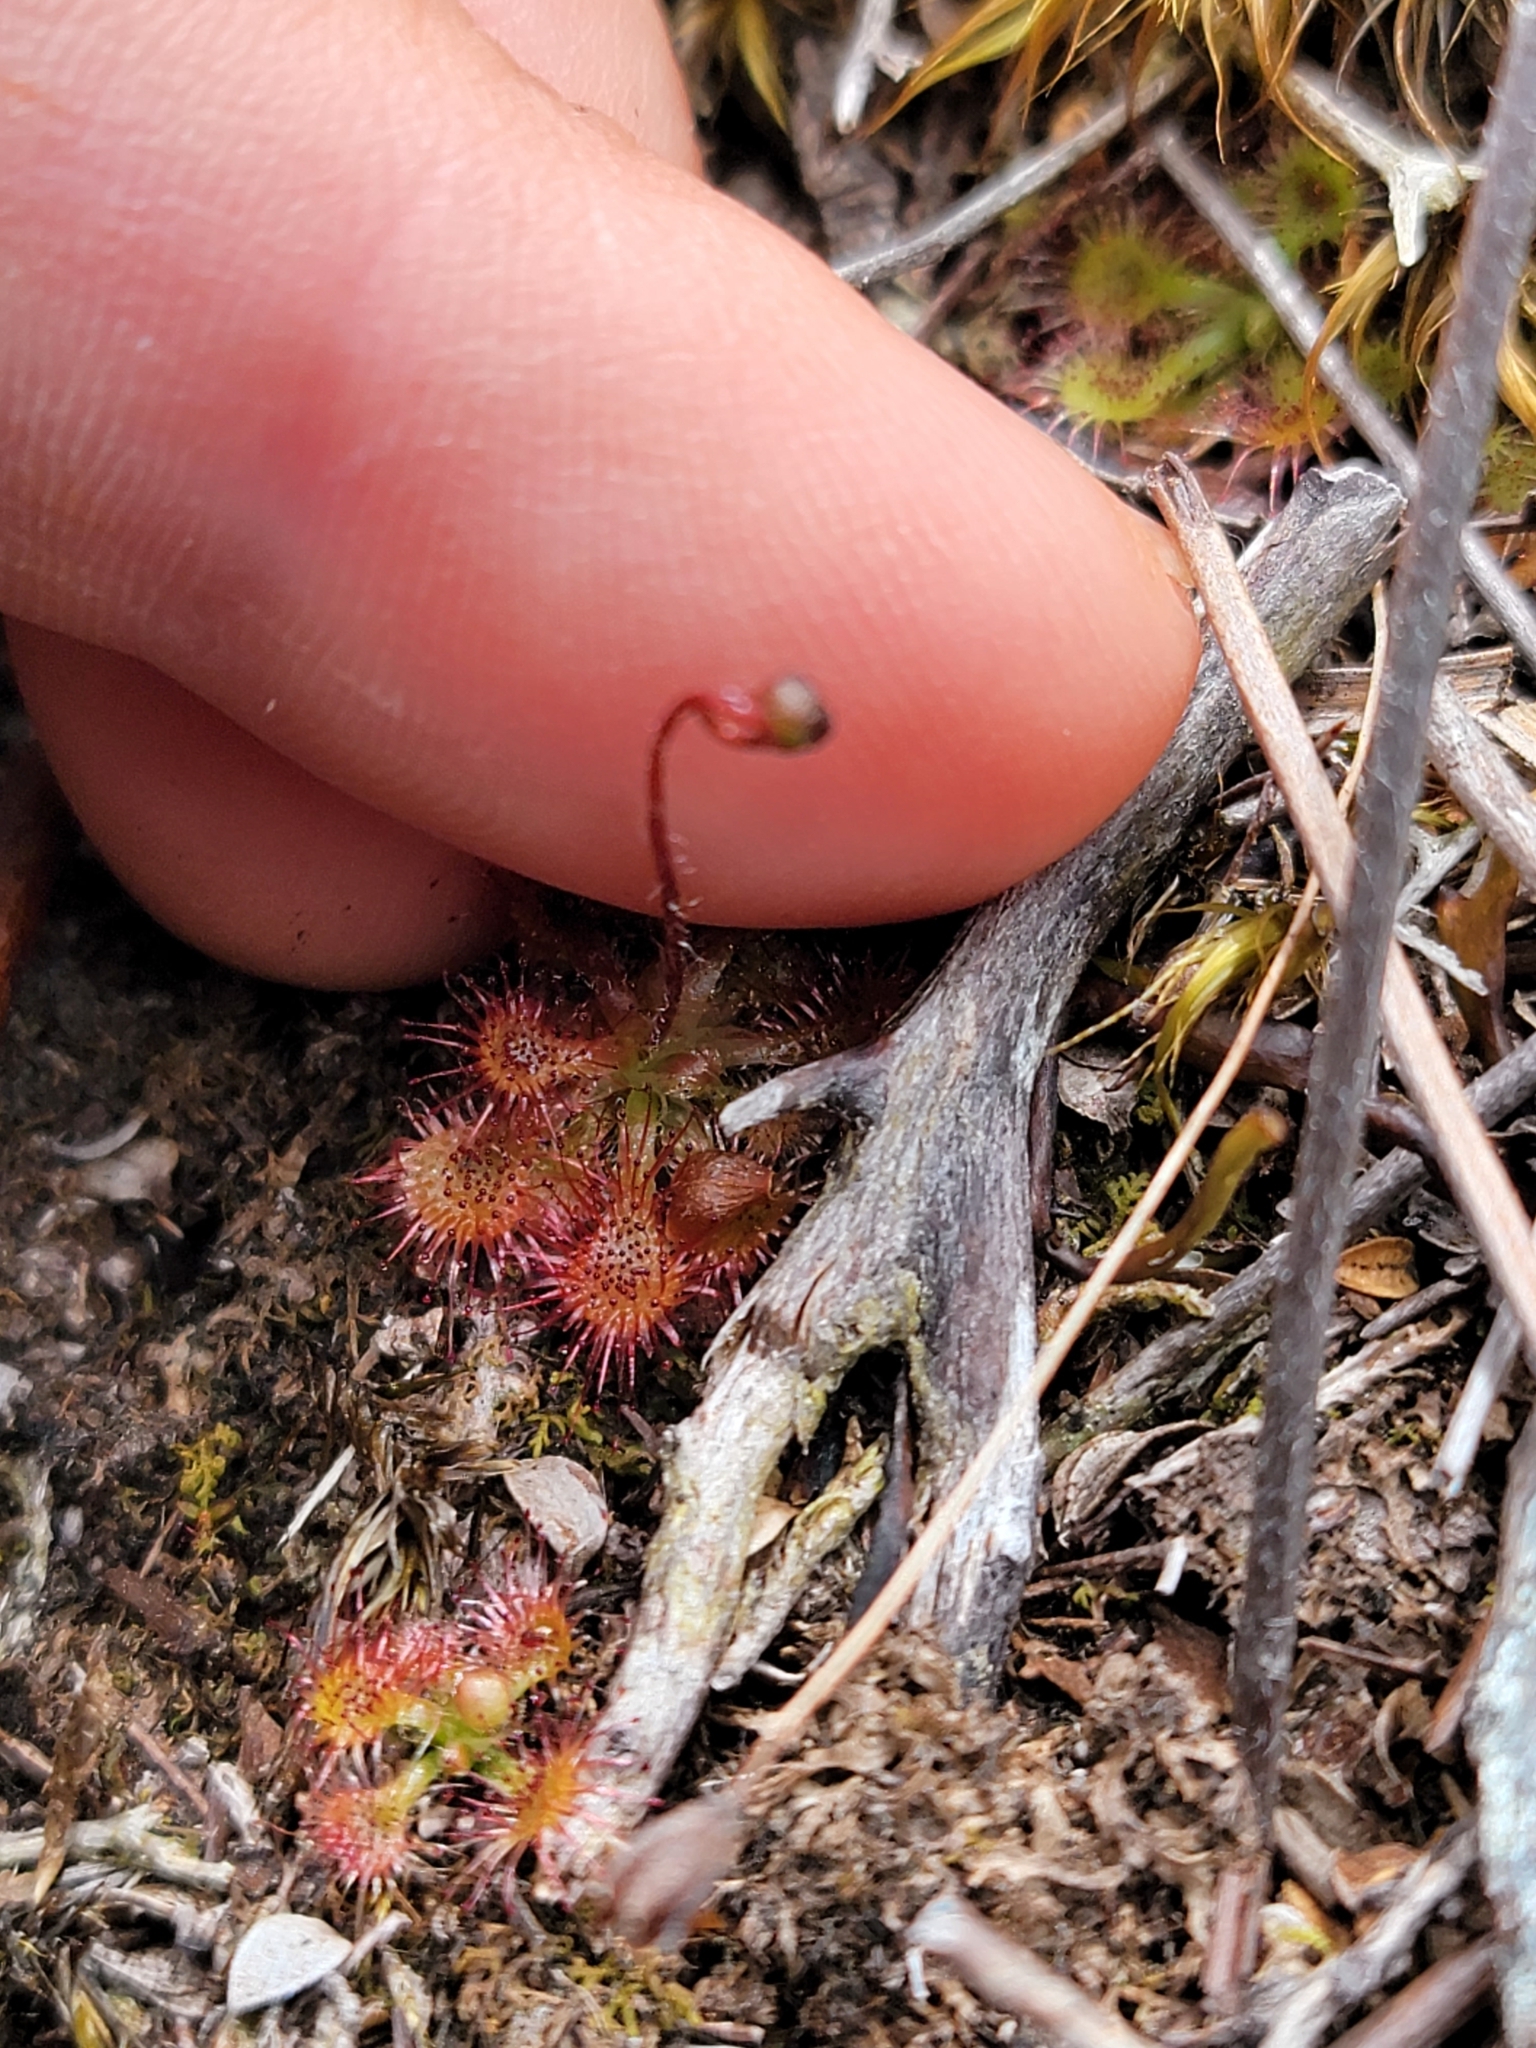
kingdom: Plantae
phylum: Tracheophyta
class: Magnoliopsida
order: Caryophyllales
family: Droseraceae
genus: Drosera
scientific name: Drosera spatulata
